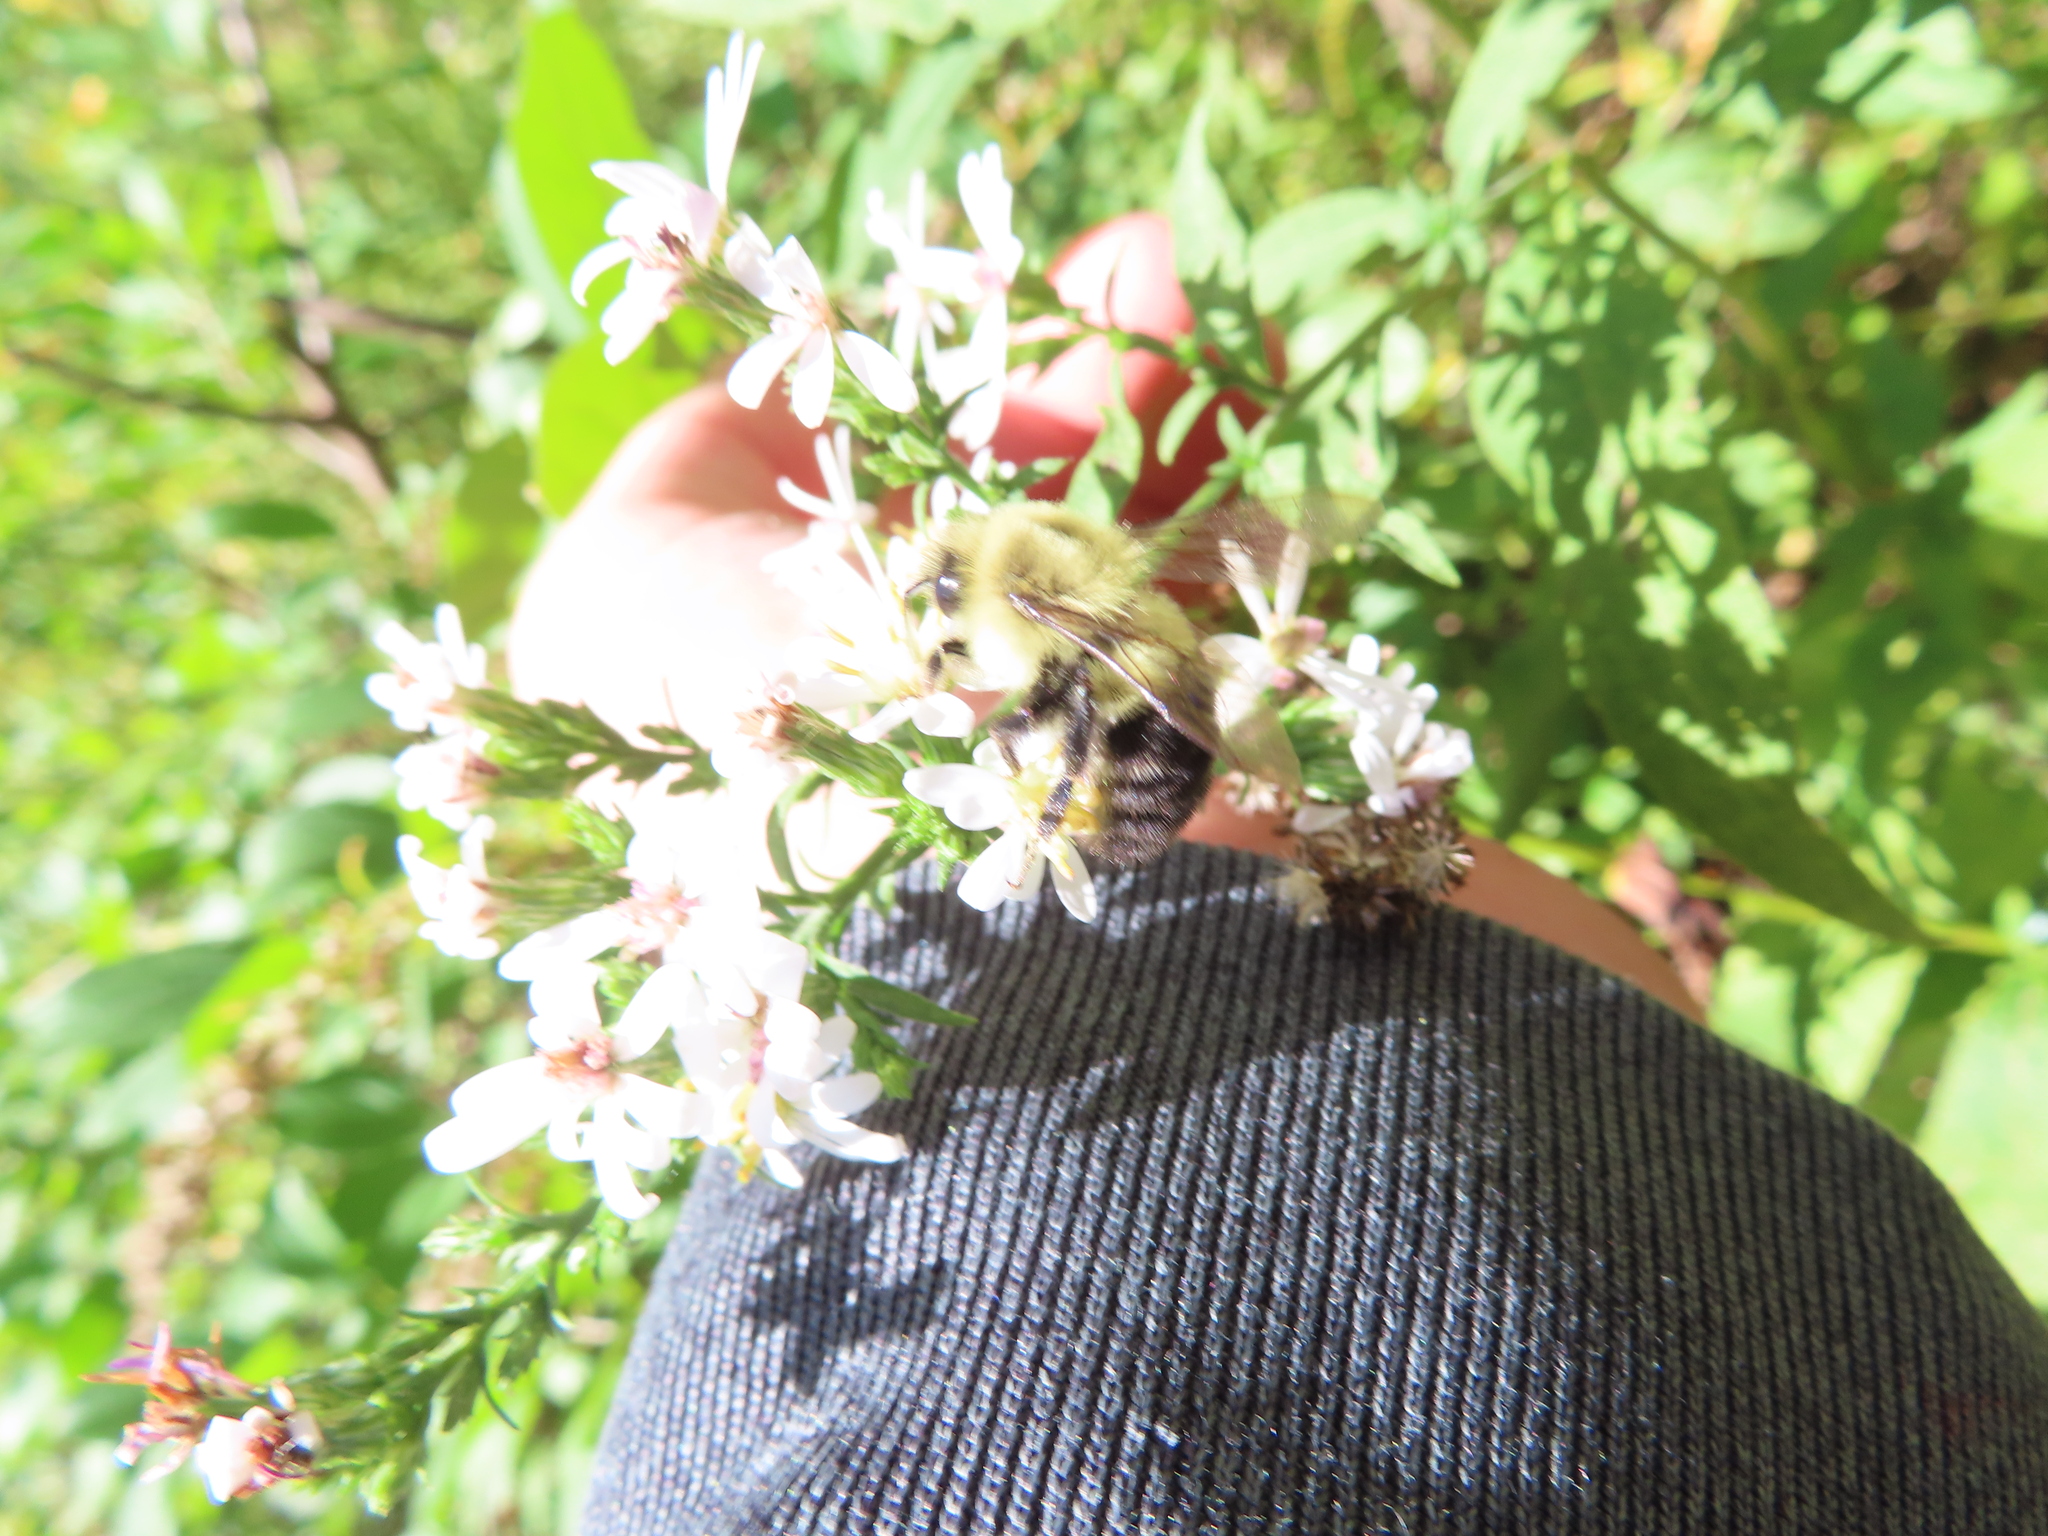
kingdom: Animalia
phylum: Arthropoda
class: Insecta
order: Hymenoptera
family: Apidae
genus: Bombus
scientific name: Bombus impatiens
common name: Common eastern bumble bee
